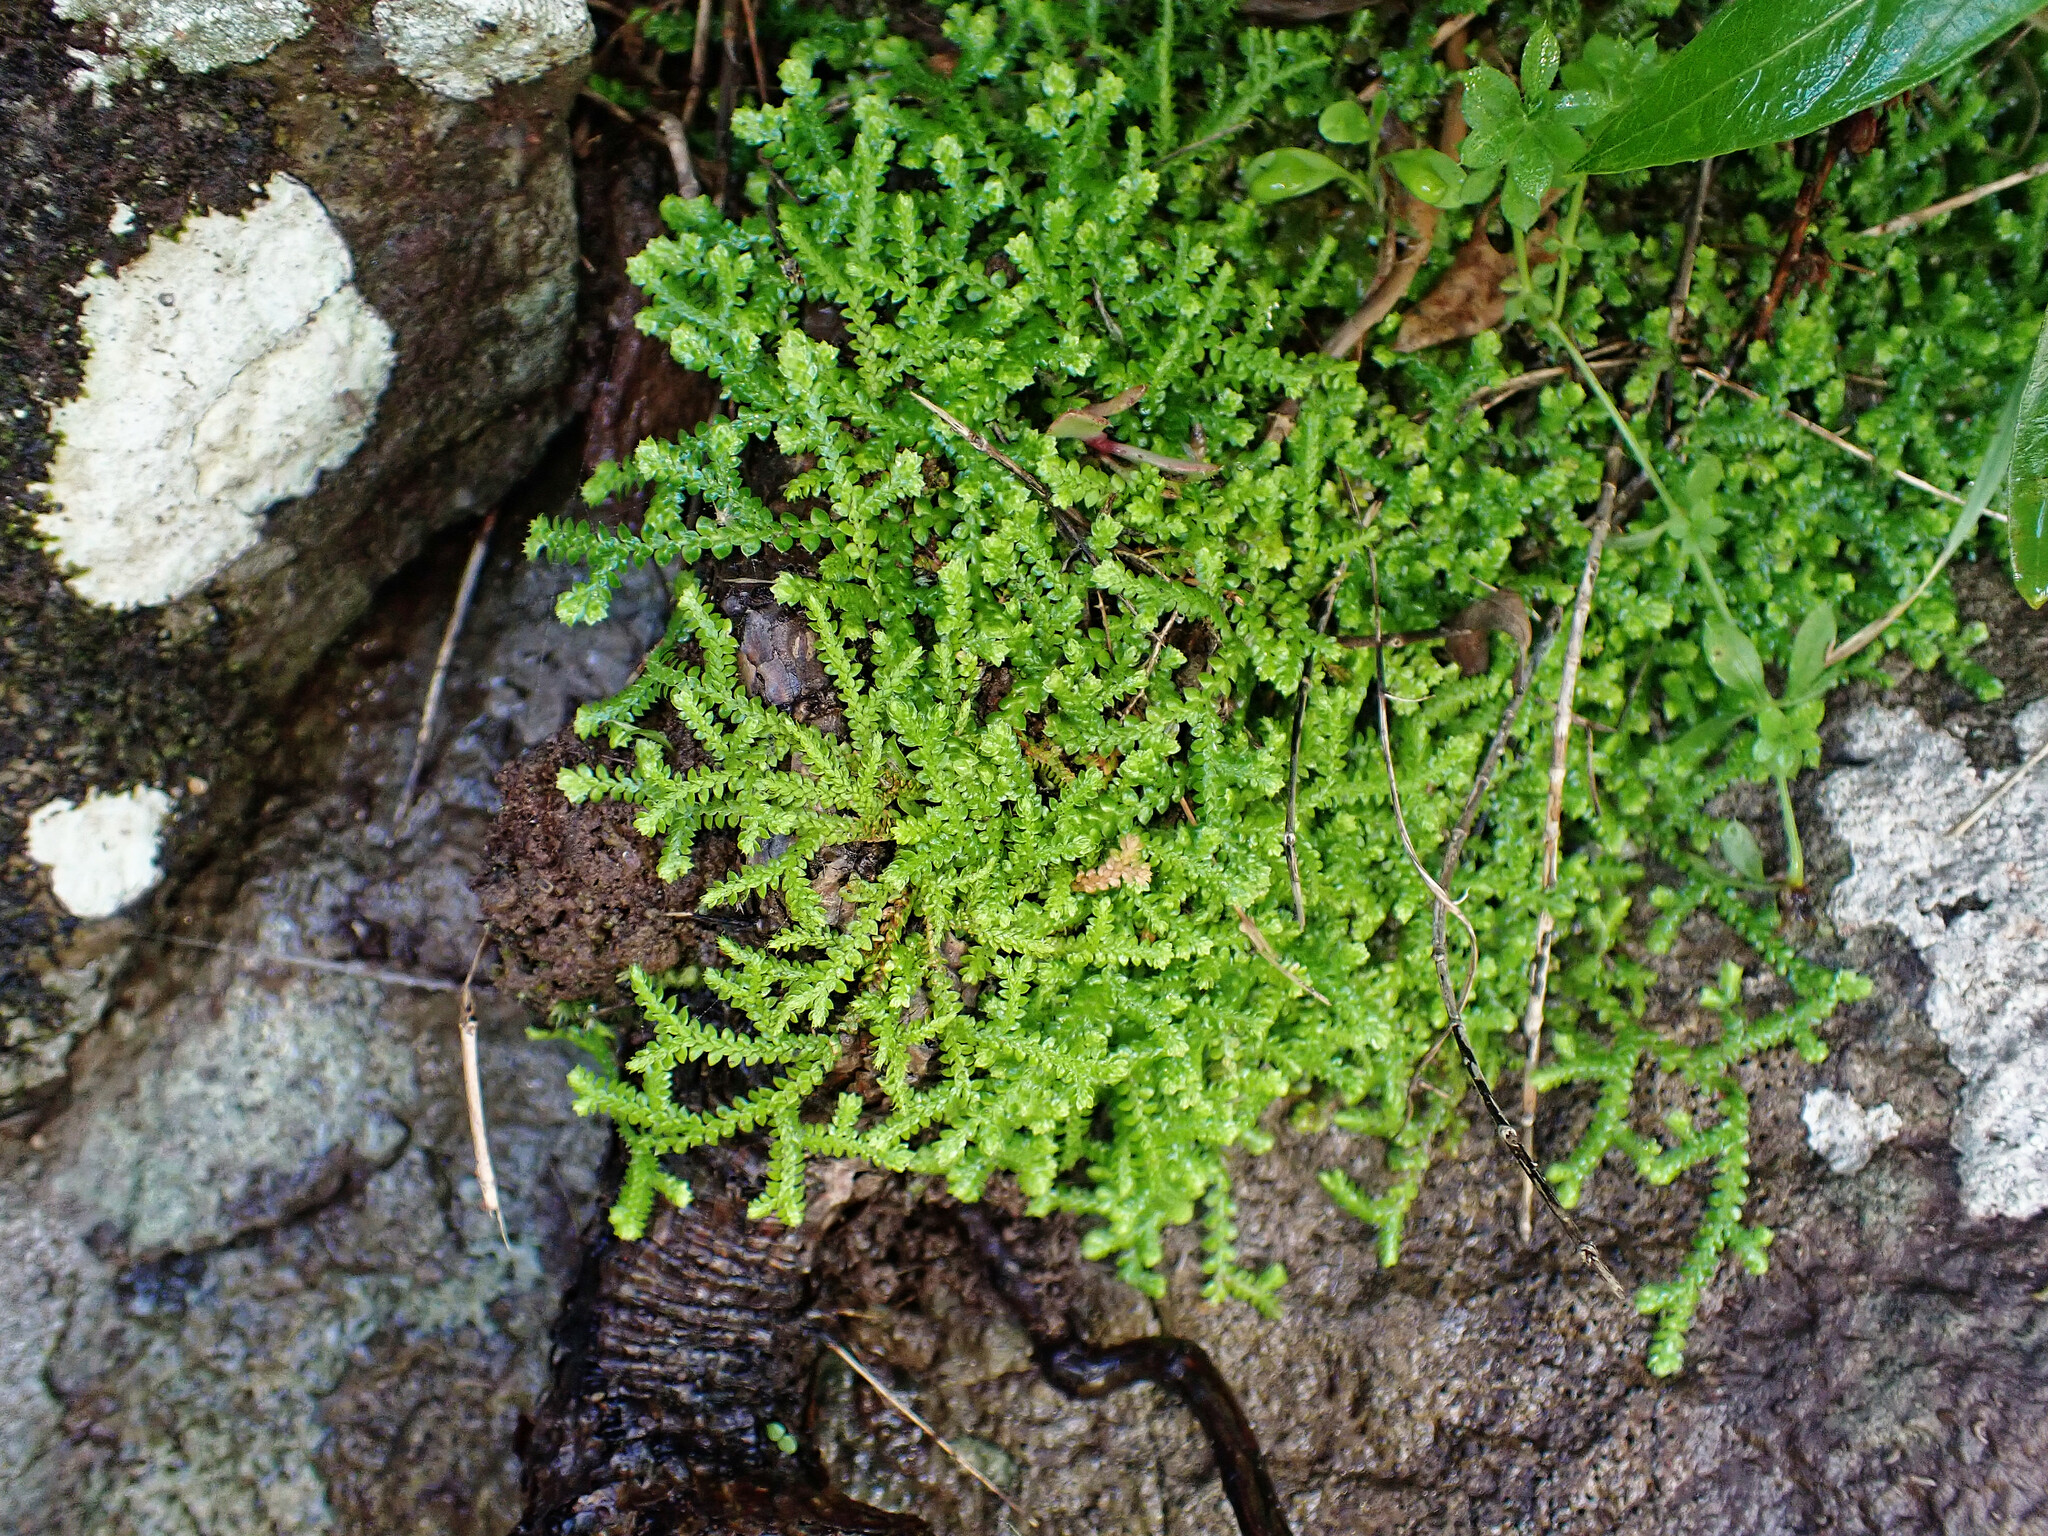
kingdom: Plantae
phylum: Tracheophyta
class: Lycopodiopsida
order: Selaginellales
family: Selaginellaceae
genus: Selaginella
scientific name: Selaginella denticulata
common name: Toothed-leaved clubmoss
